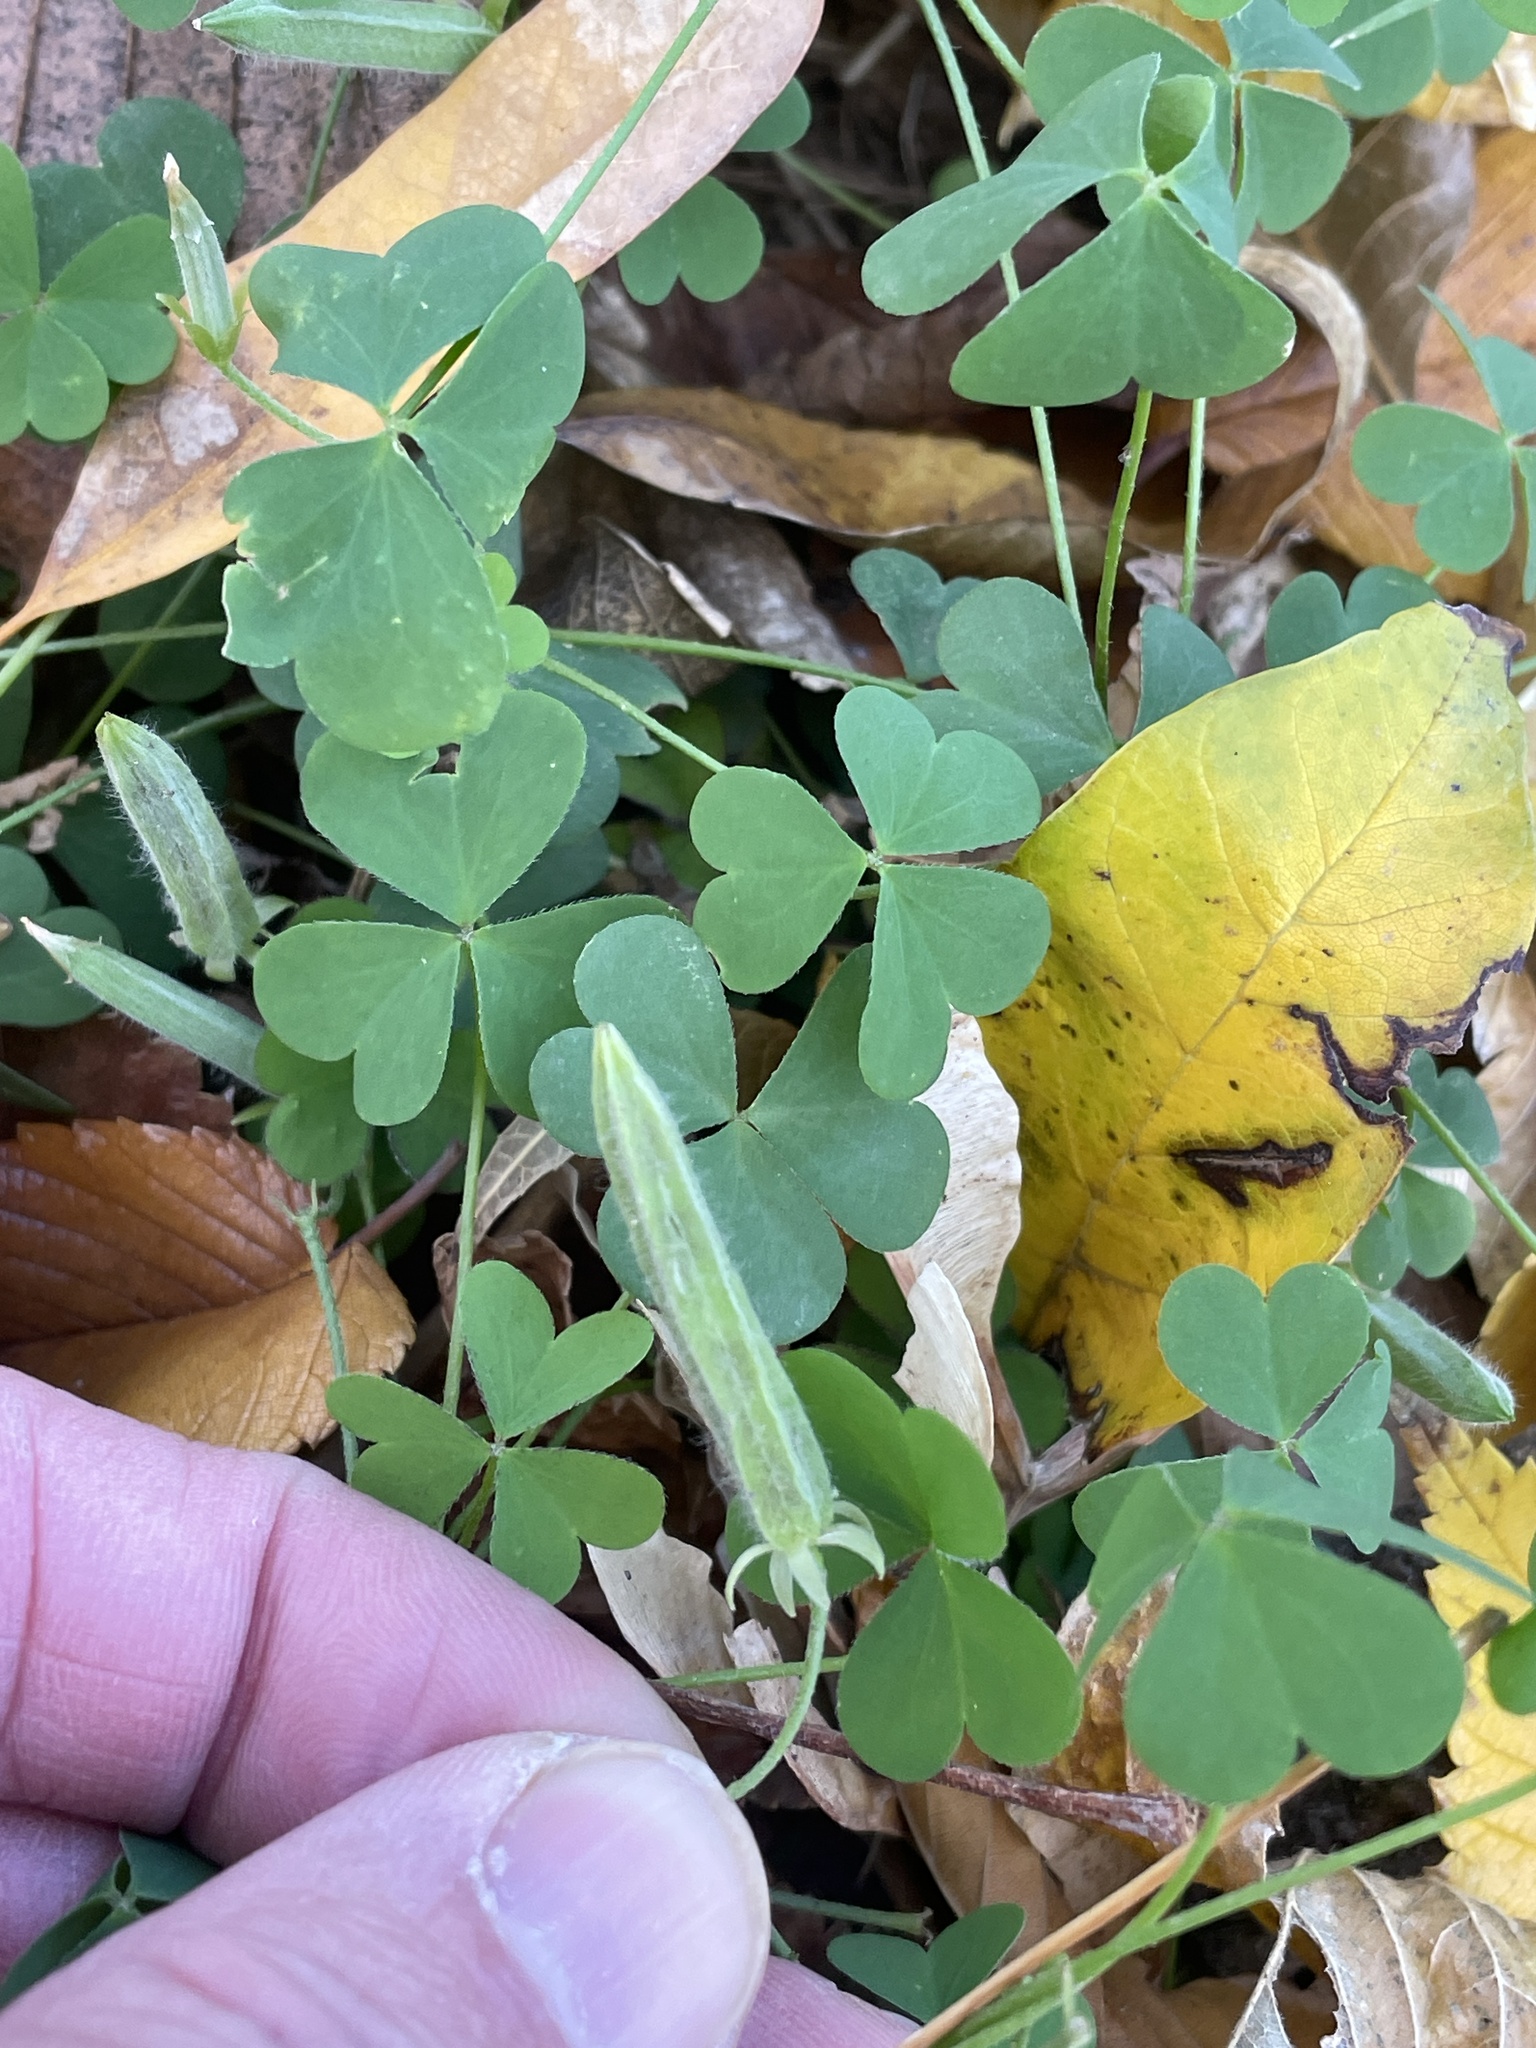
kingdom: Plantae
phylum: Tracheophyta
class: Magnoliopsida
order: Oxalidales
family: Oxalidaceae
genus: Oxalis
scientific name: Oxalis dillenii
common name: Sussex yellow-sorrel
